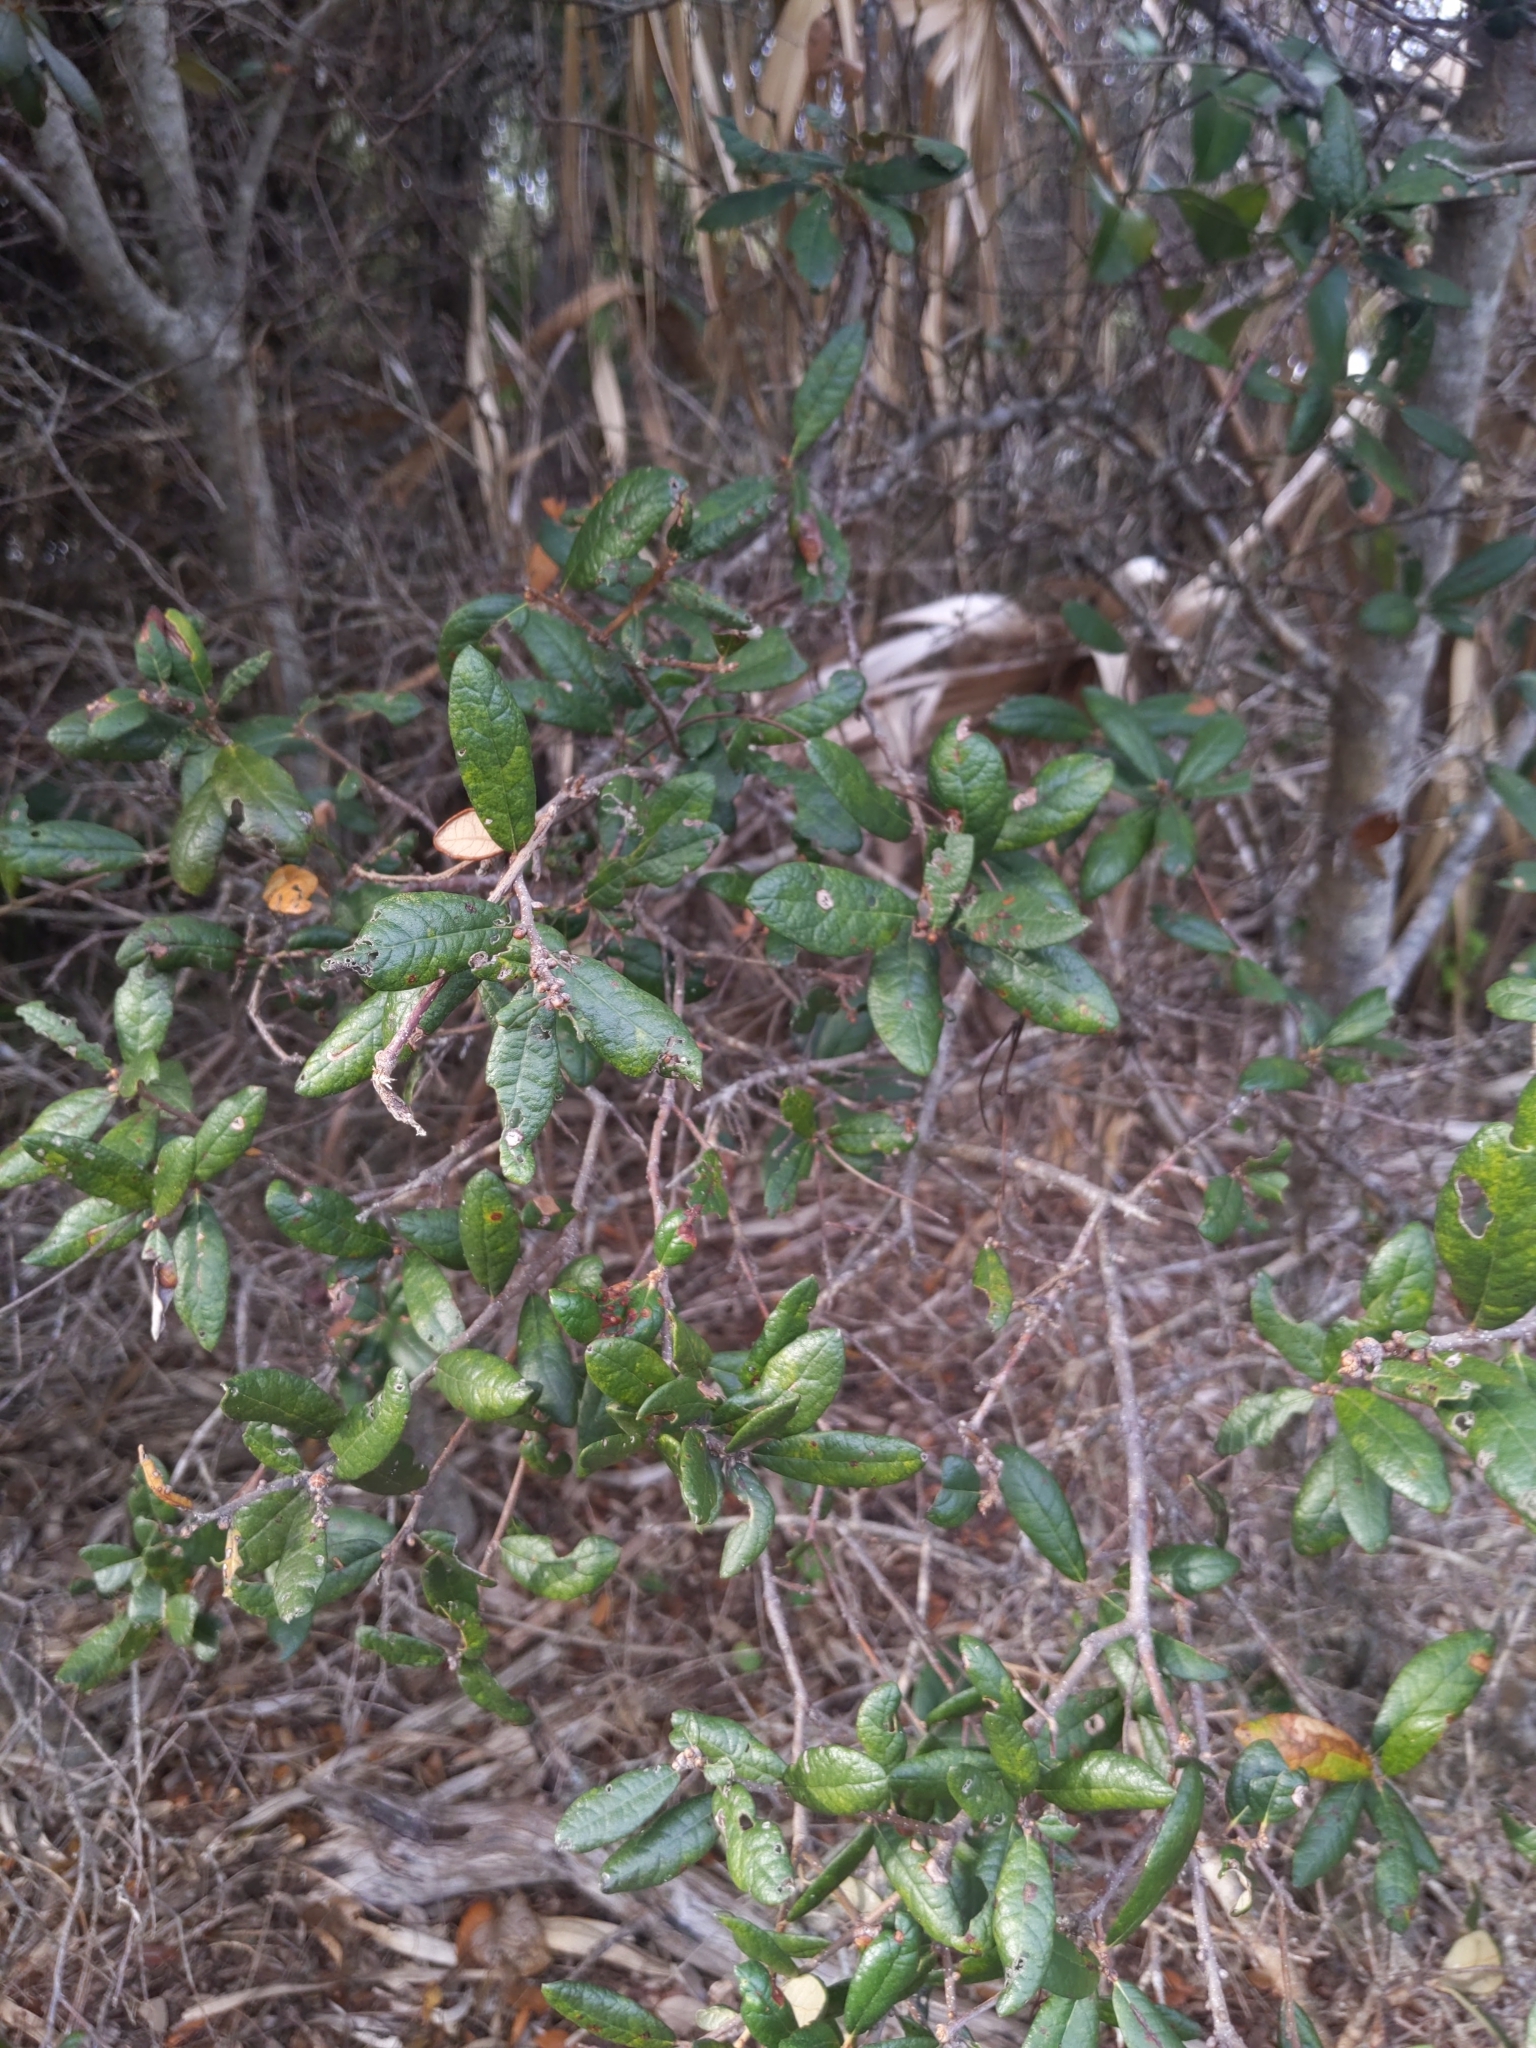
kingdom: Plantae
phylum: Tracheophyta
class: Magnoliopsida
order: Fagales
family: Fagaceae
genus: Quercus
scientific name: Quercus geminata
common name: Sand live oak
